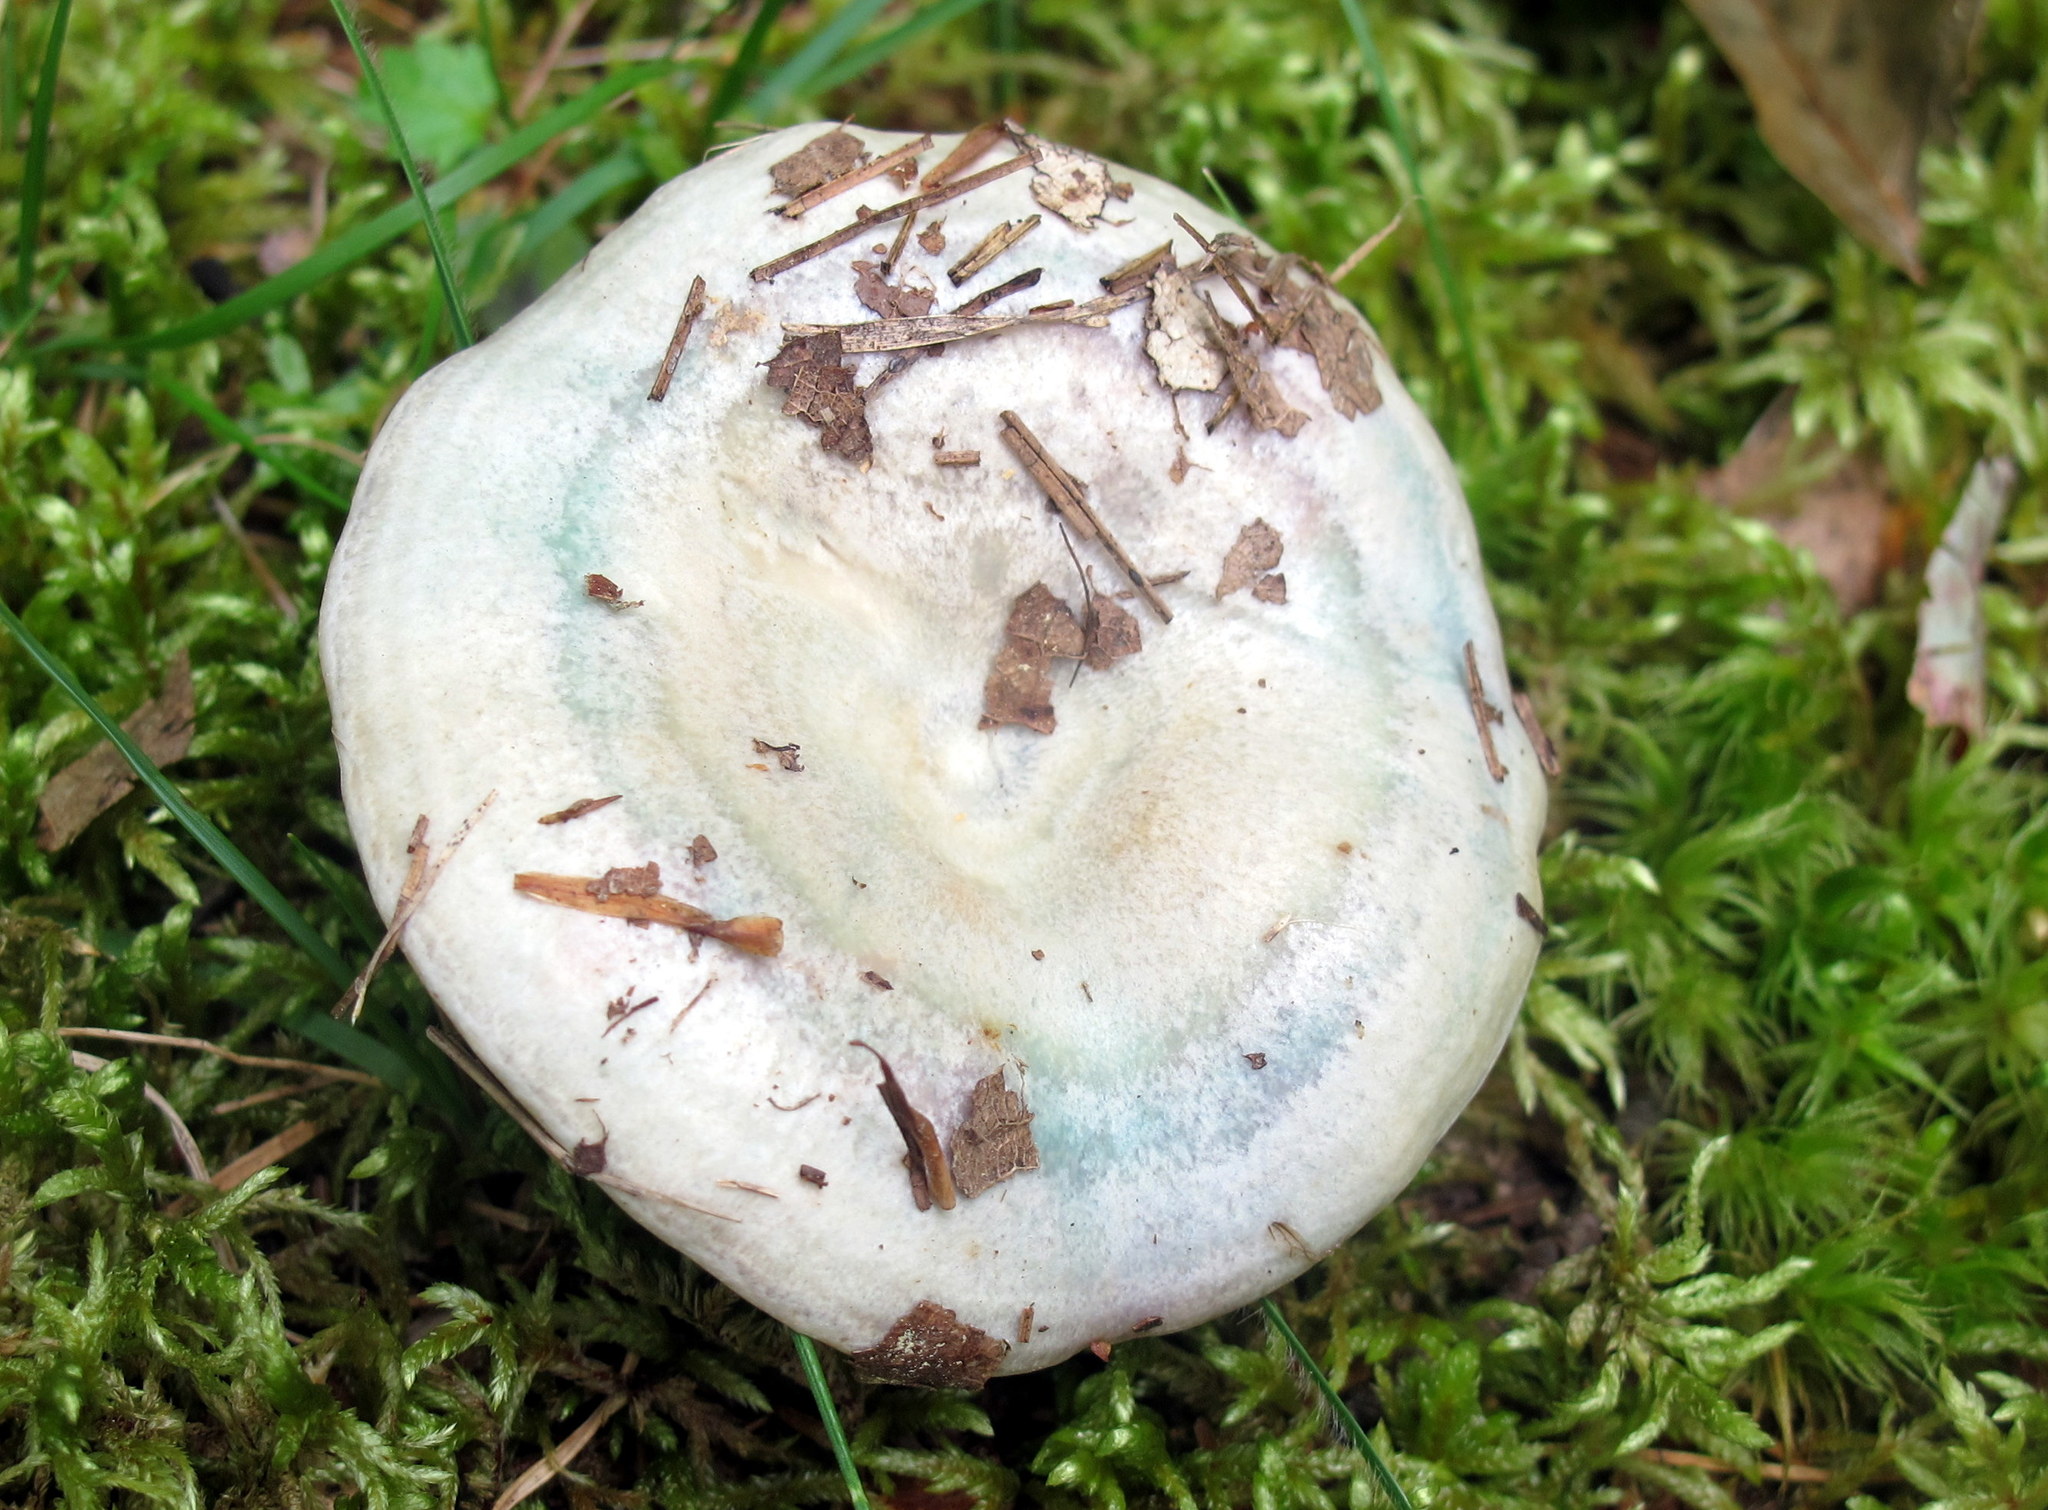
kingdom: Fungi
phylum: Basidiomycota
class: Agaricomycetes
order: Russulales
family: Russulaceae
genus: Lactarius
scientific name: Lactarius paradoxus
